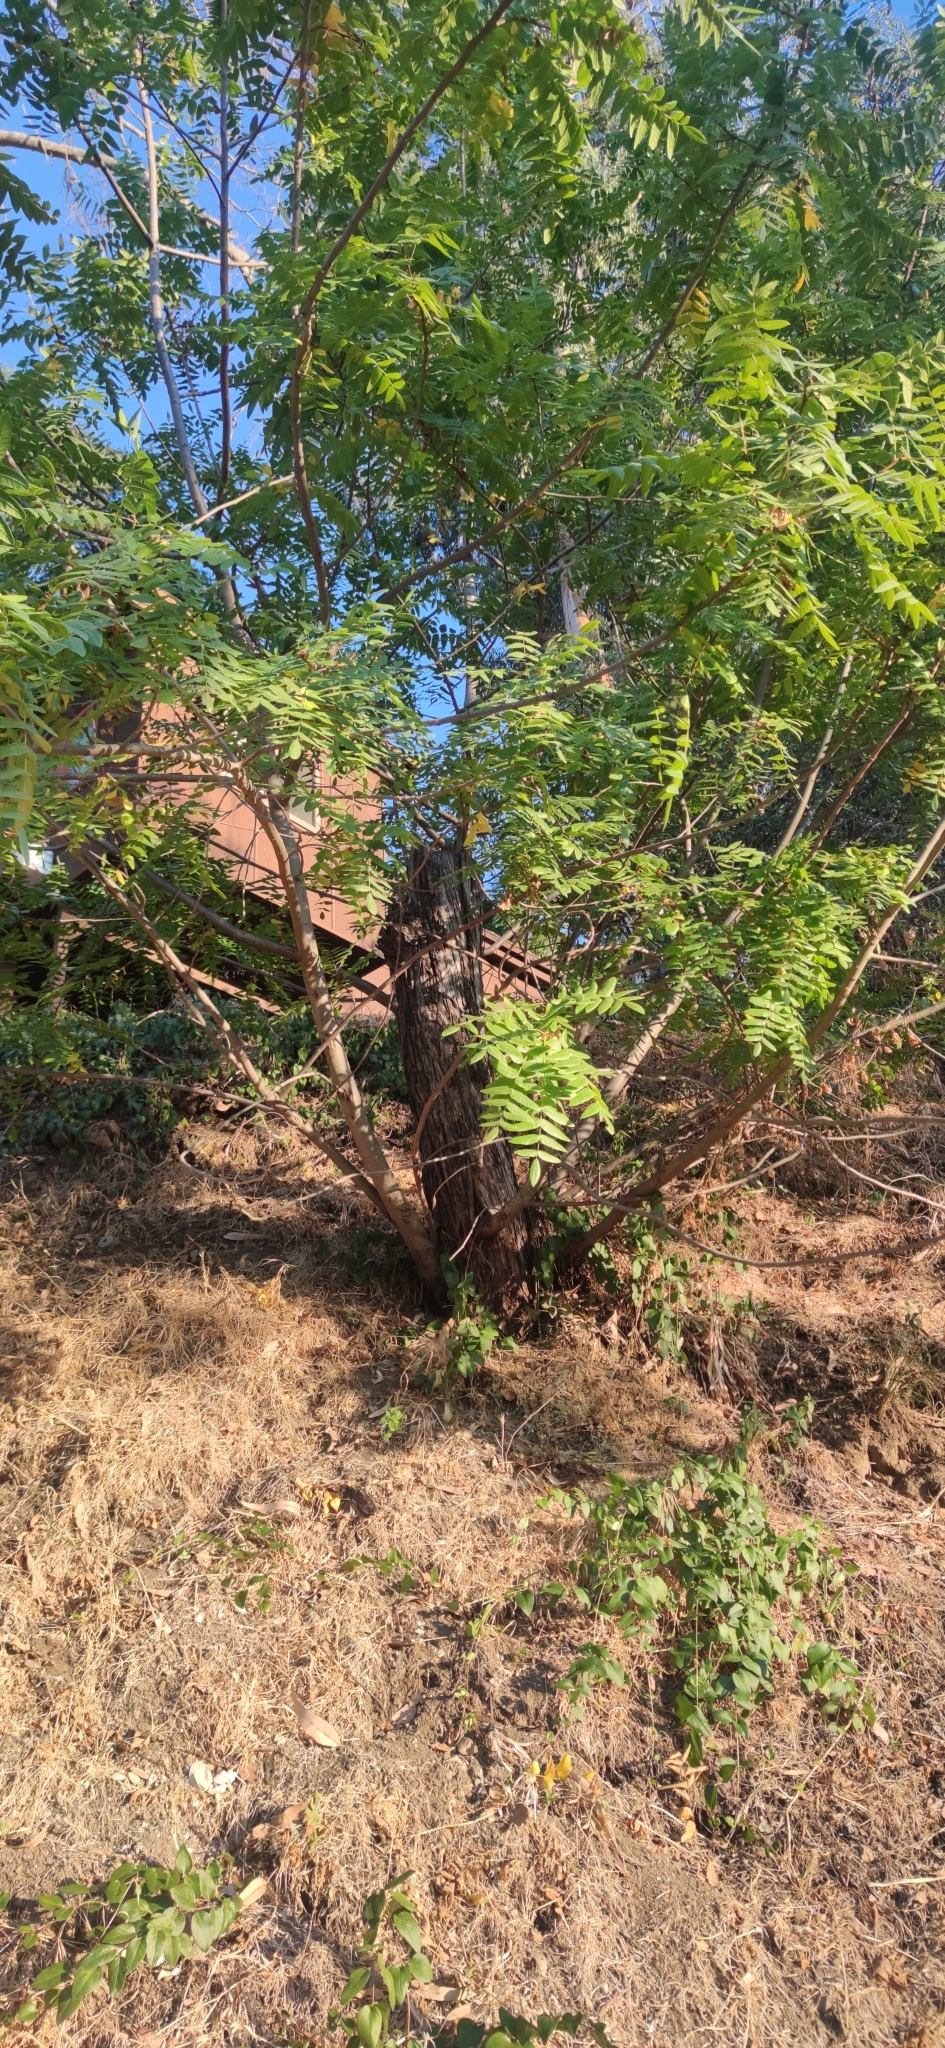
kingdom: Plantae
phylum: Tracheophyta
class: Magnoliopsida
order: Fagales
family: Juglandaceae
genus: Juglans
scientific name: Juglans californica
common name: Southern california black walnut
